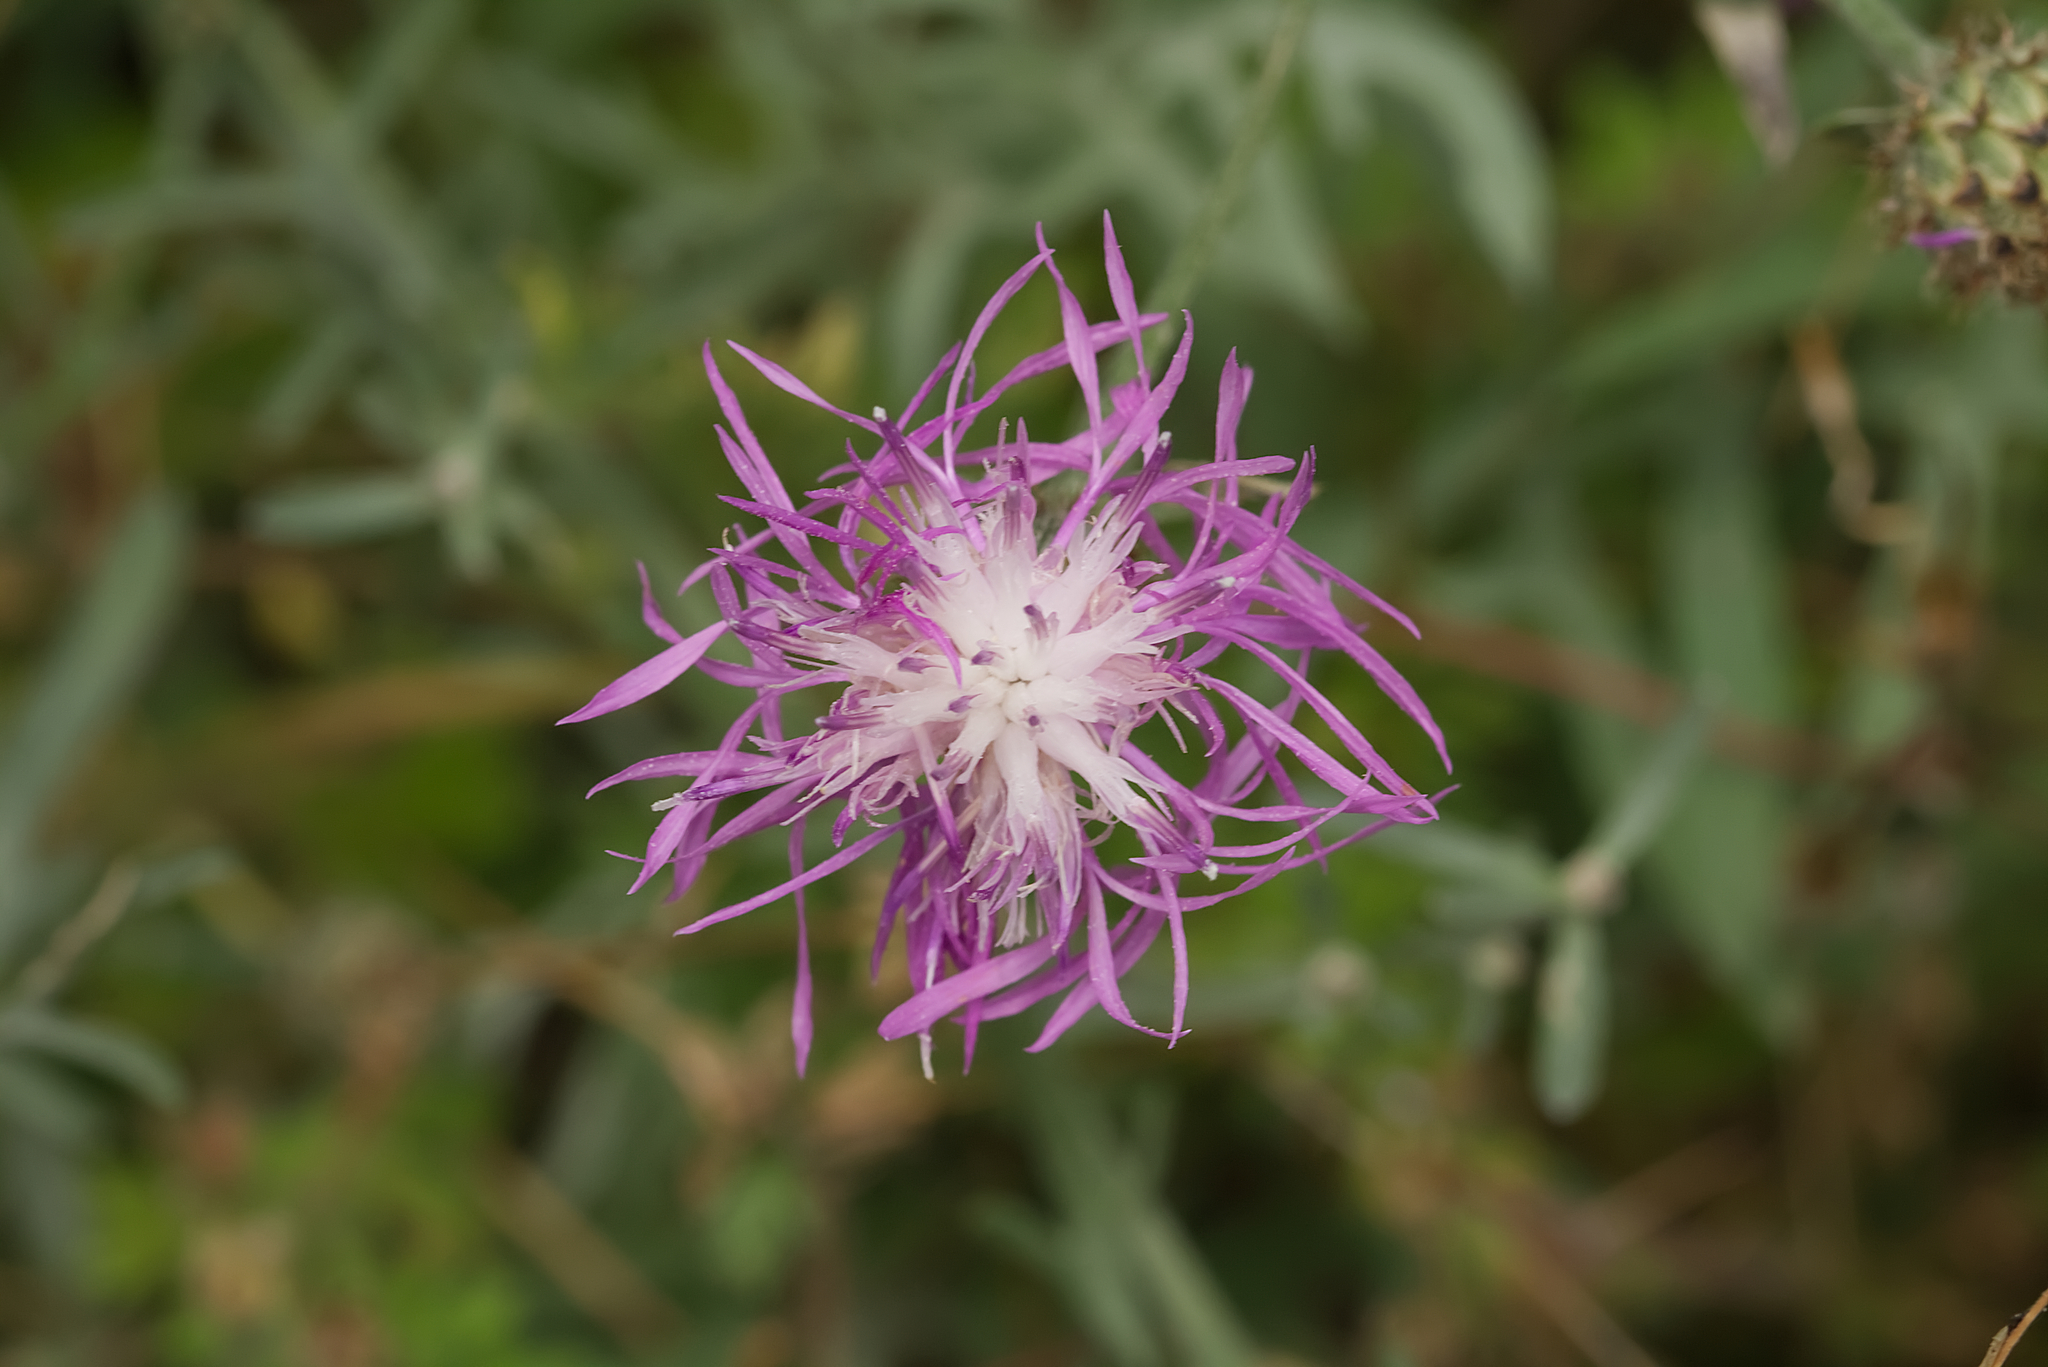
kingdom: Plantae
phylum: Tracheophyta
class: Magnoliopsida
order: Asterales
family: Asteraceae
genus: Centaurea
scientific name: Centaurea stoebe
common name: Spotted knapweed
